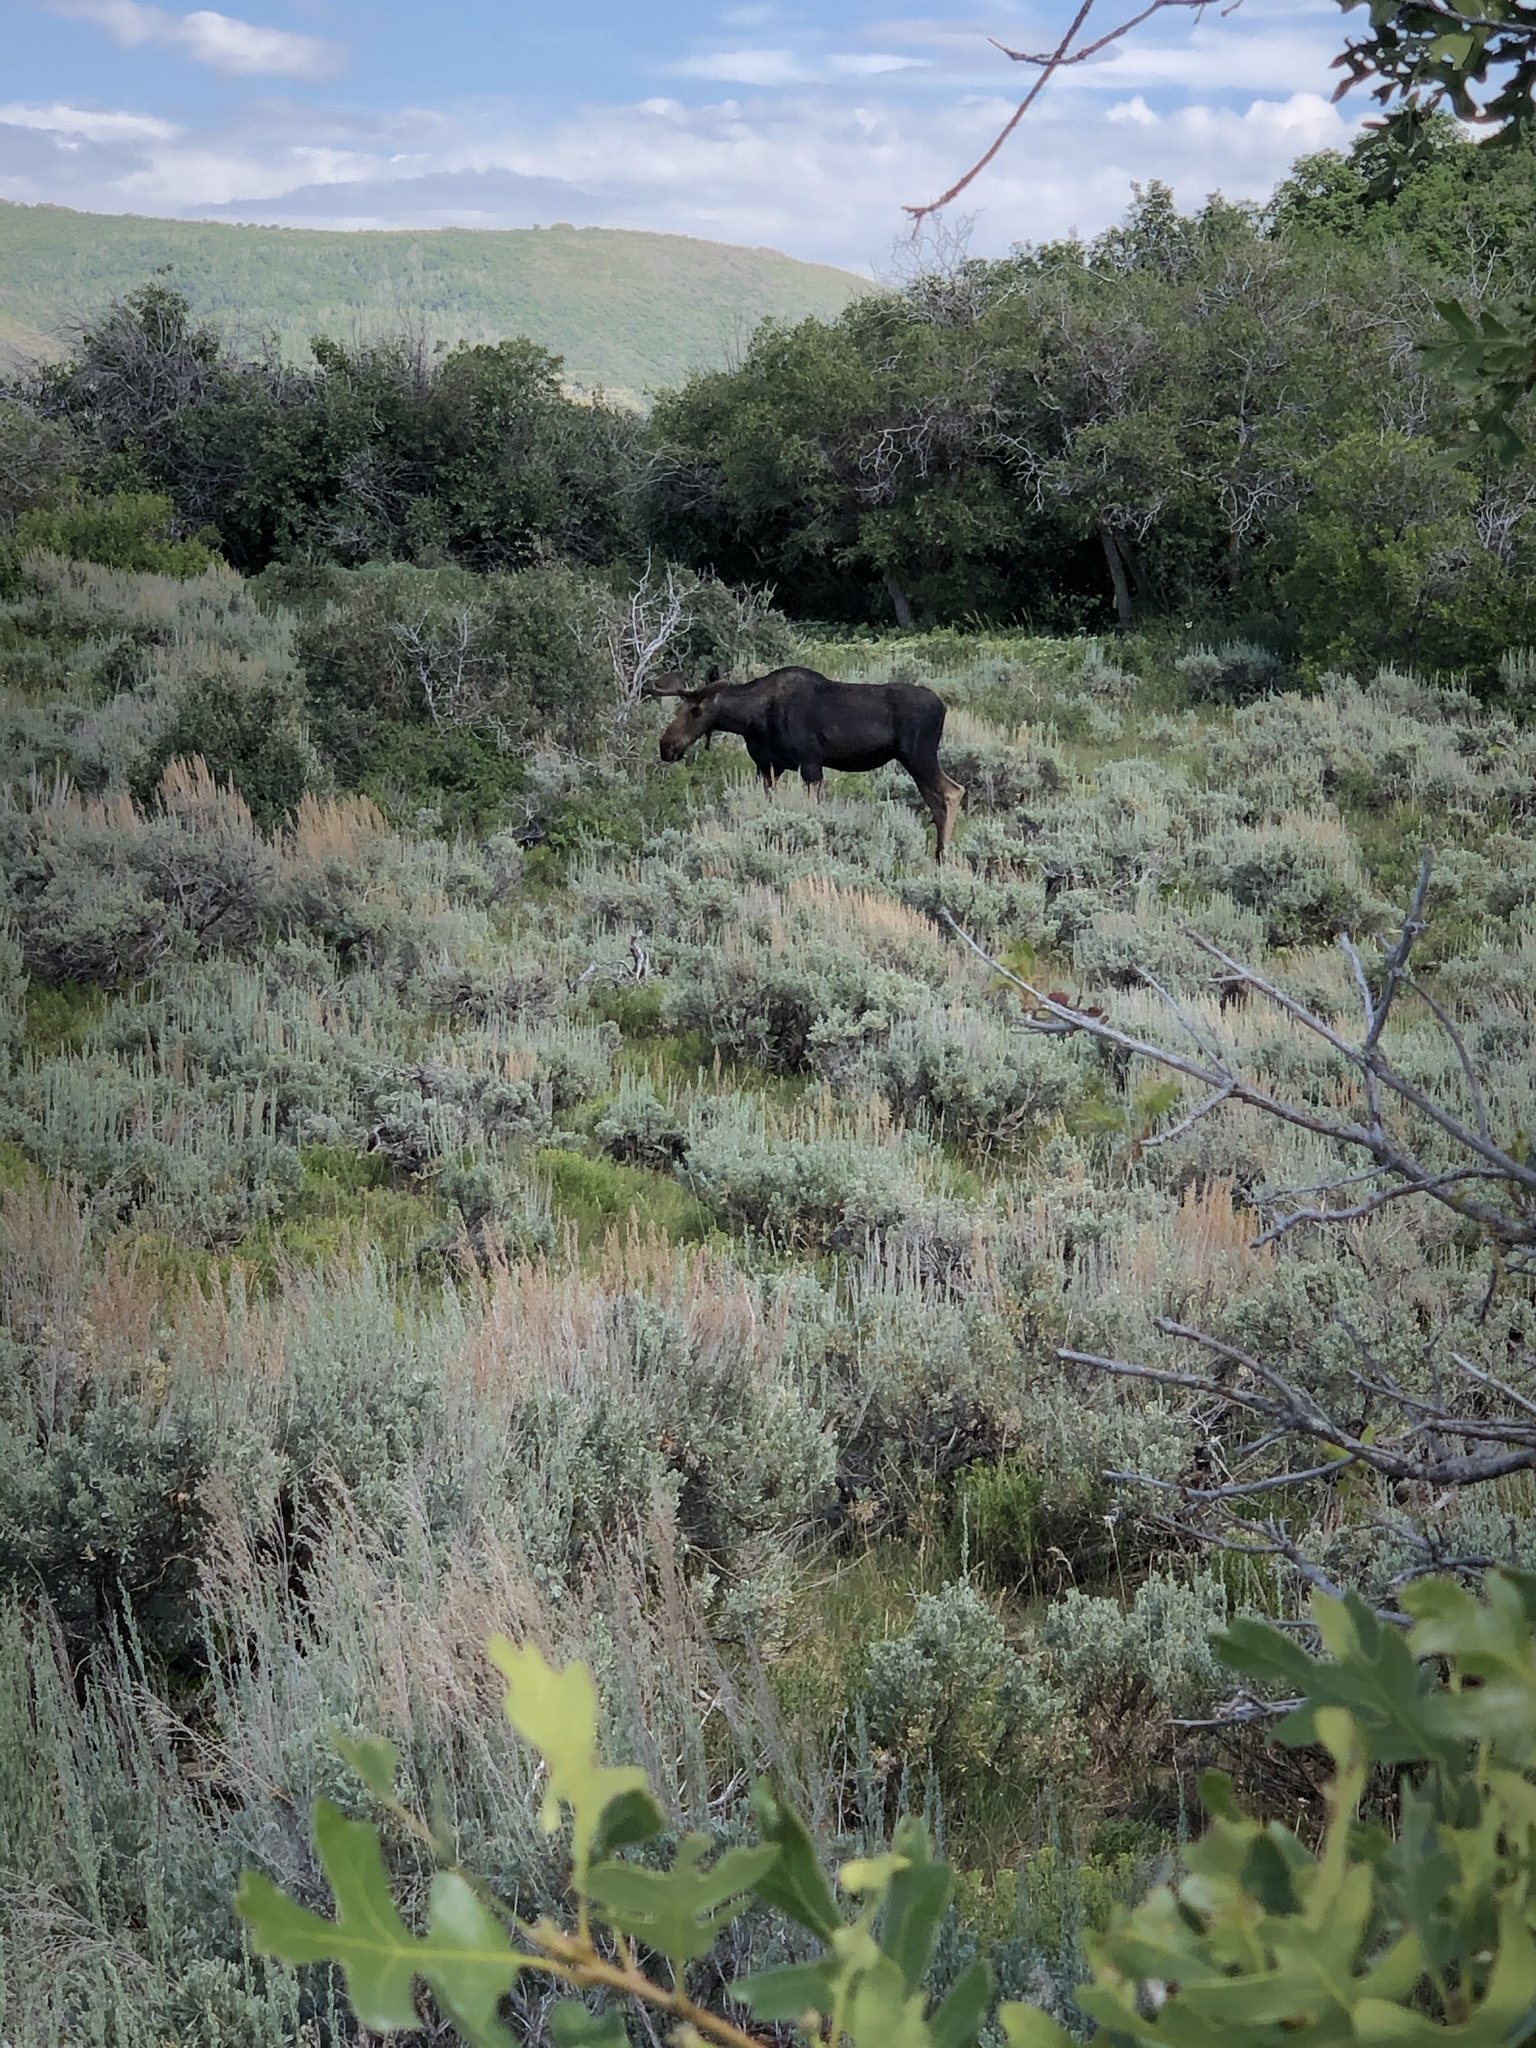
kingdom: Animalia
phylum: Chordata
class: Mammalia
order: Artiodactyla
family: Cervidae
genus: Alces
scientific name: Alces alces
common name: Moose
